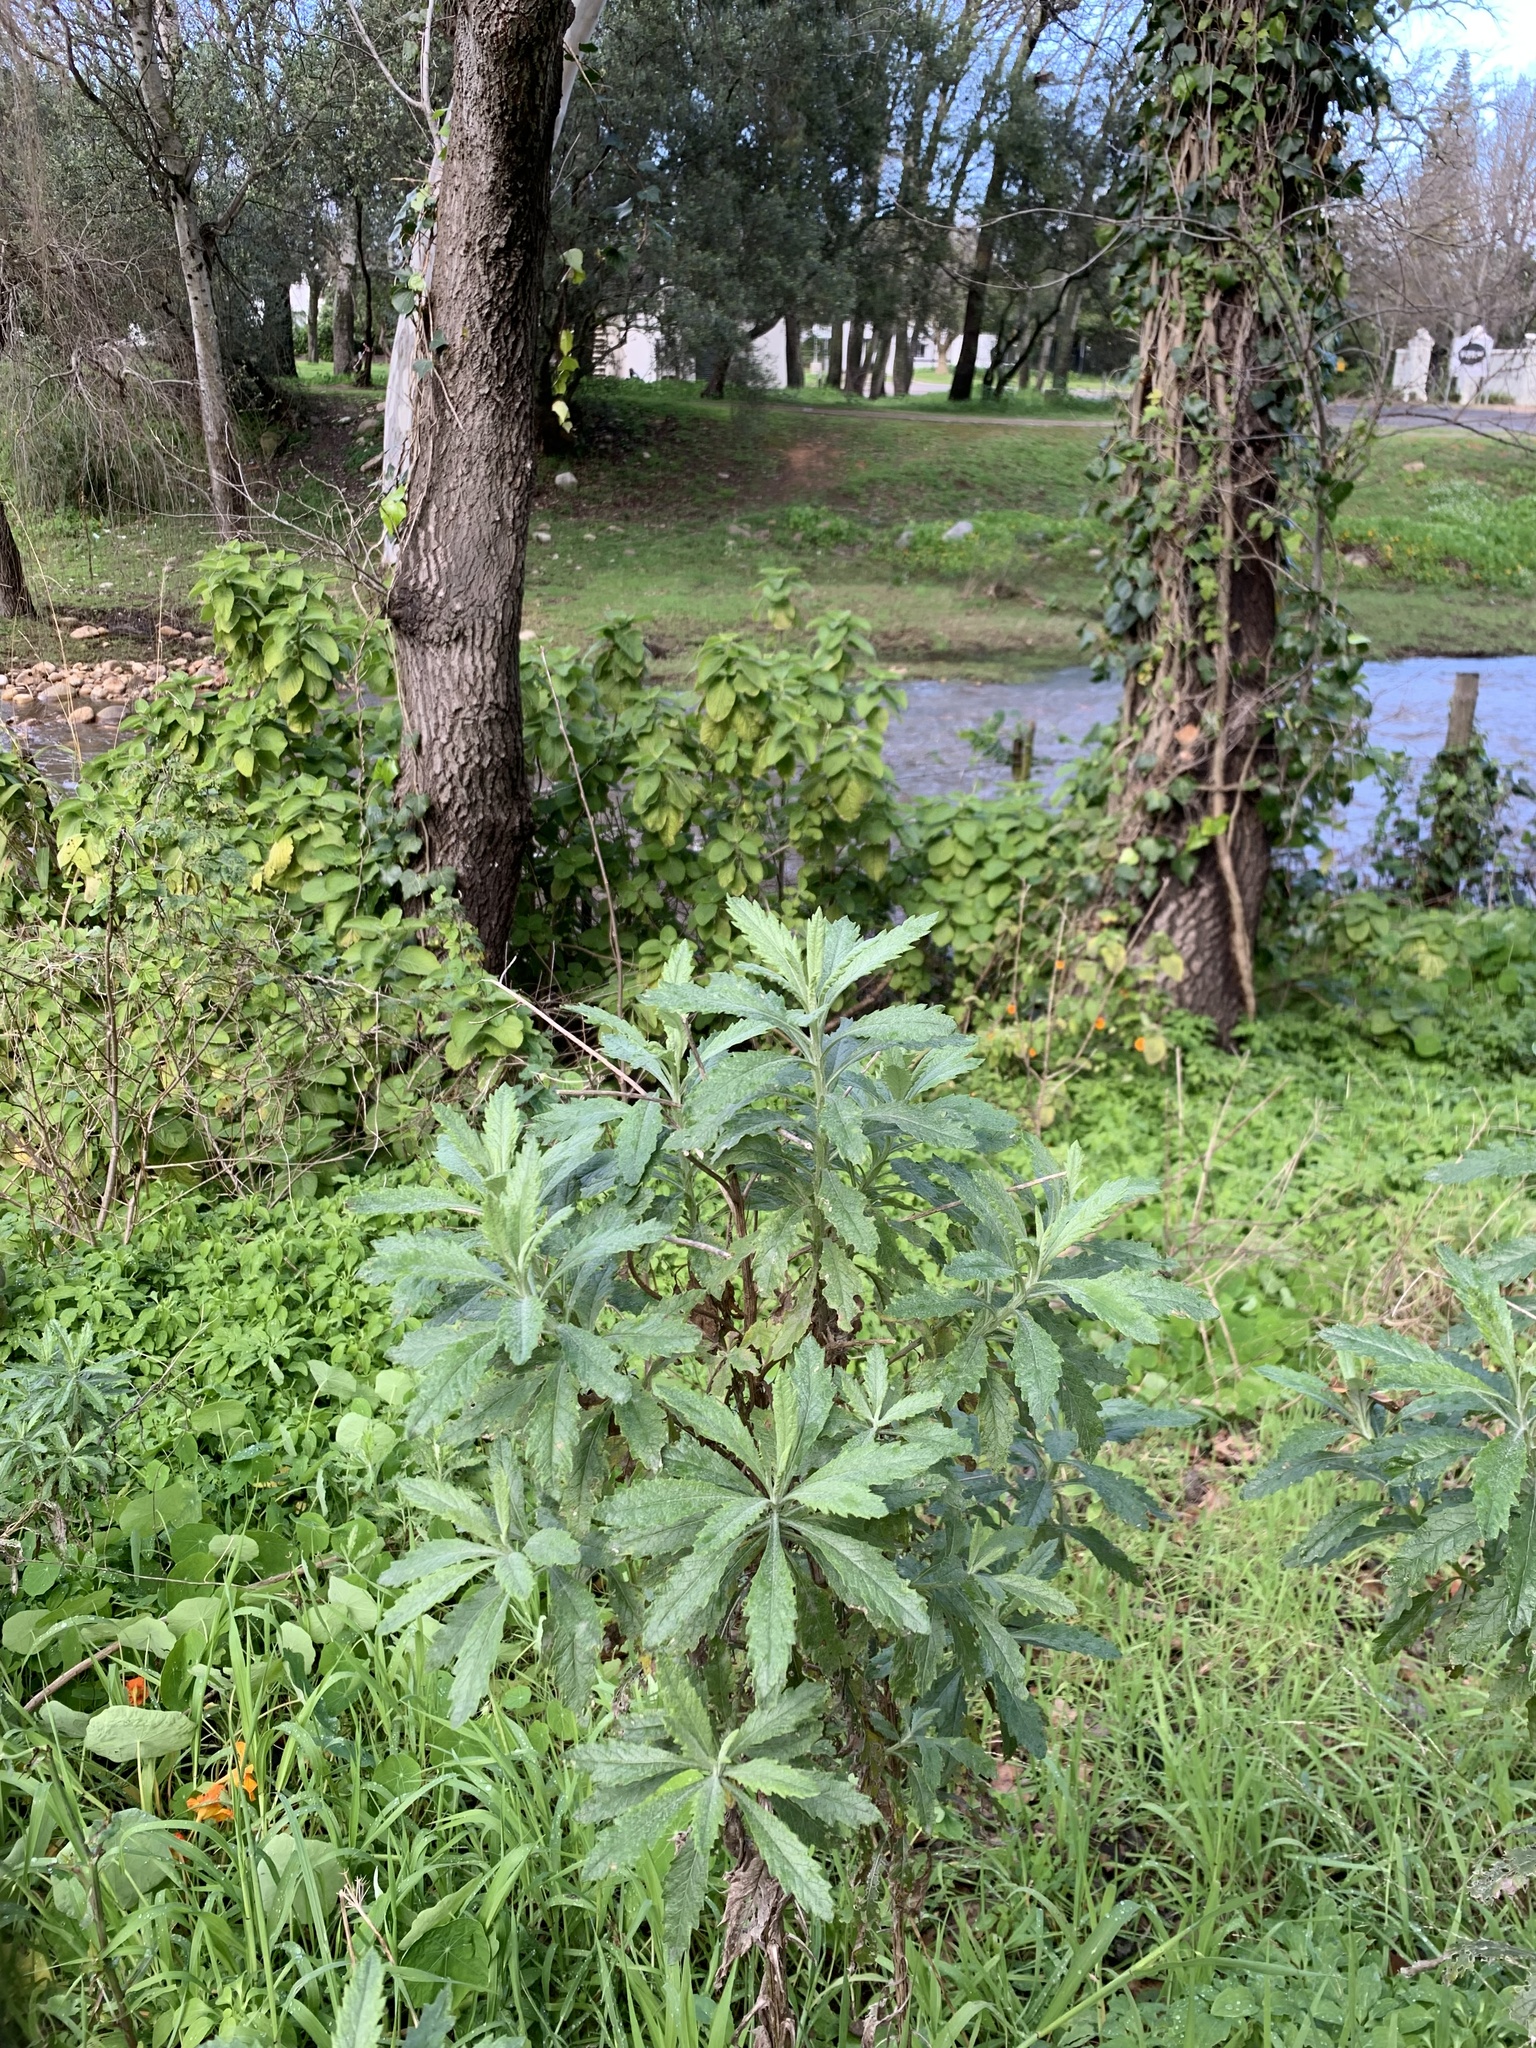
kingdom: Plantae
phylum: Tracheophyta
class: Magnoliopsida
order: Asterales
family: Asteraceae
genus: Senecio
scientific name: Senecio pterophorus
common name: Shoddy ragwort
